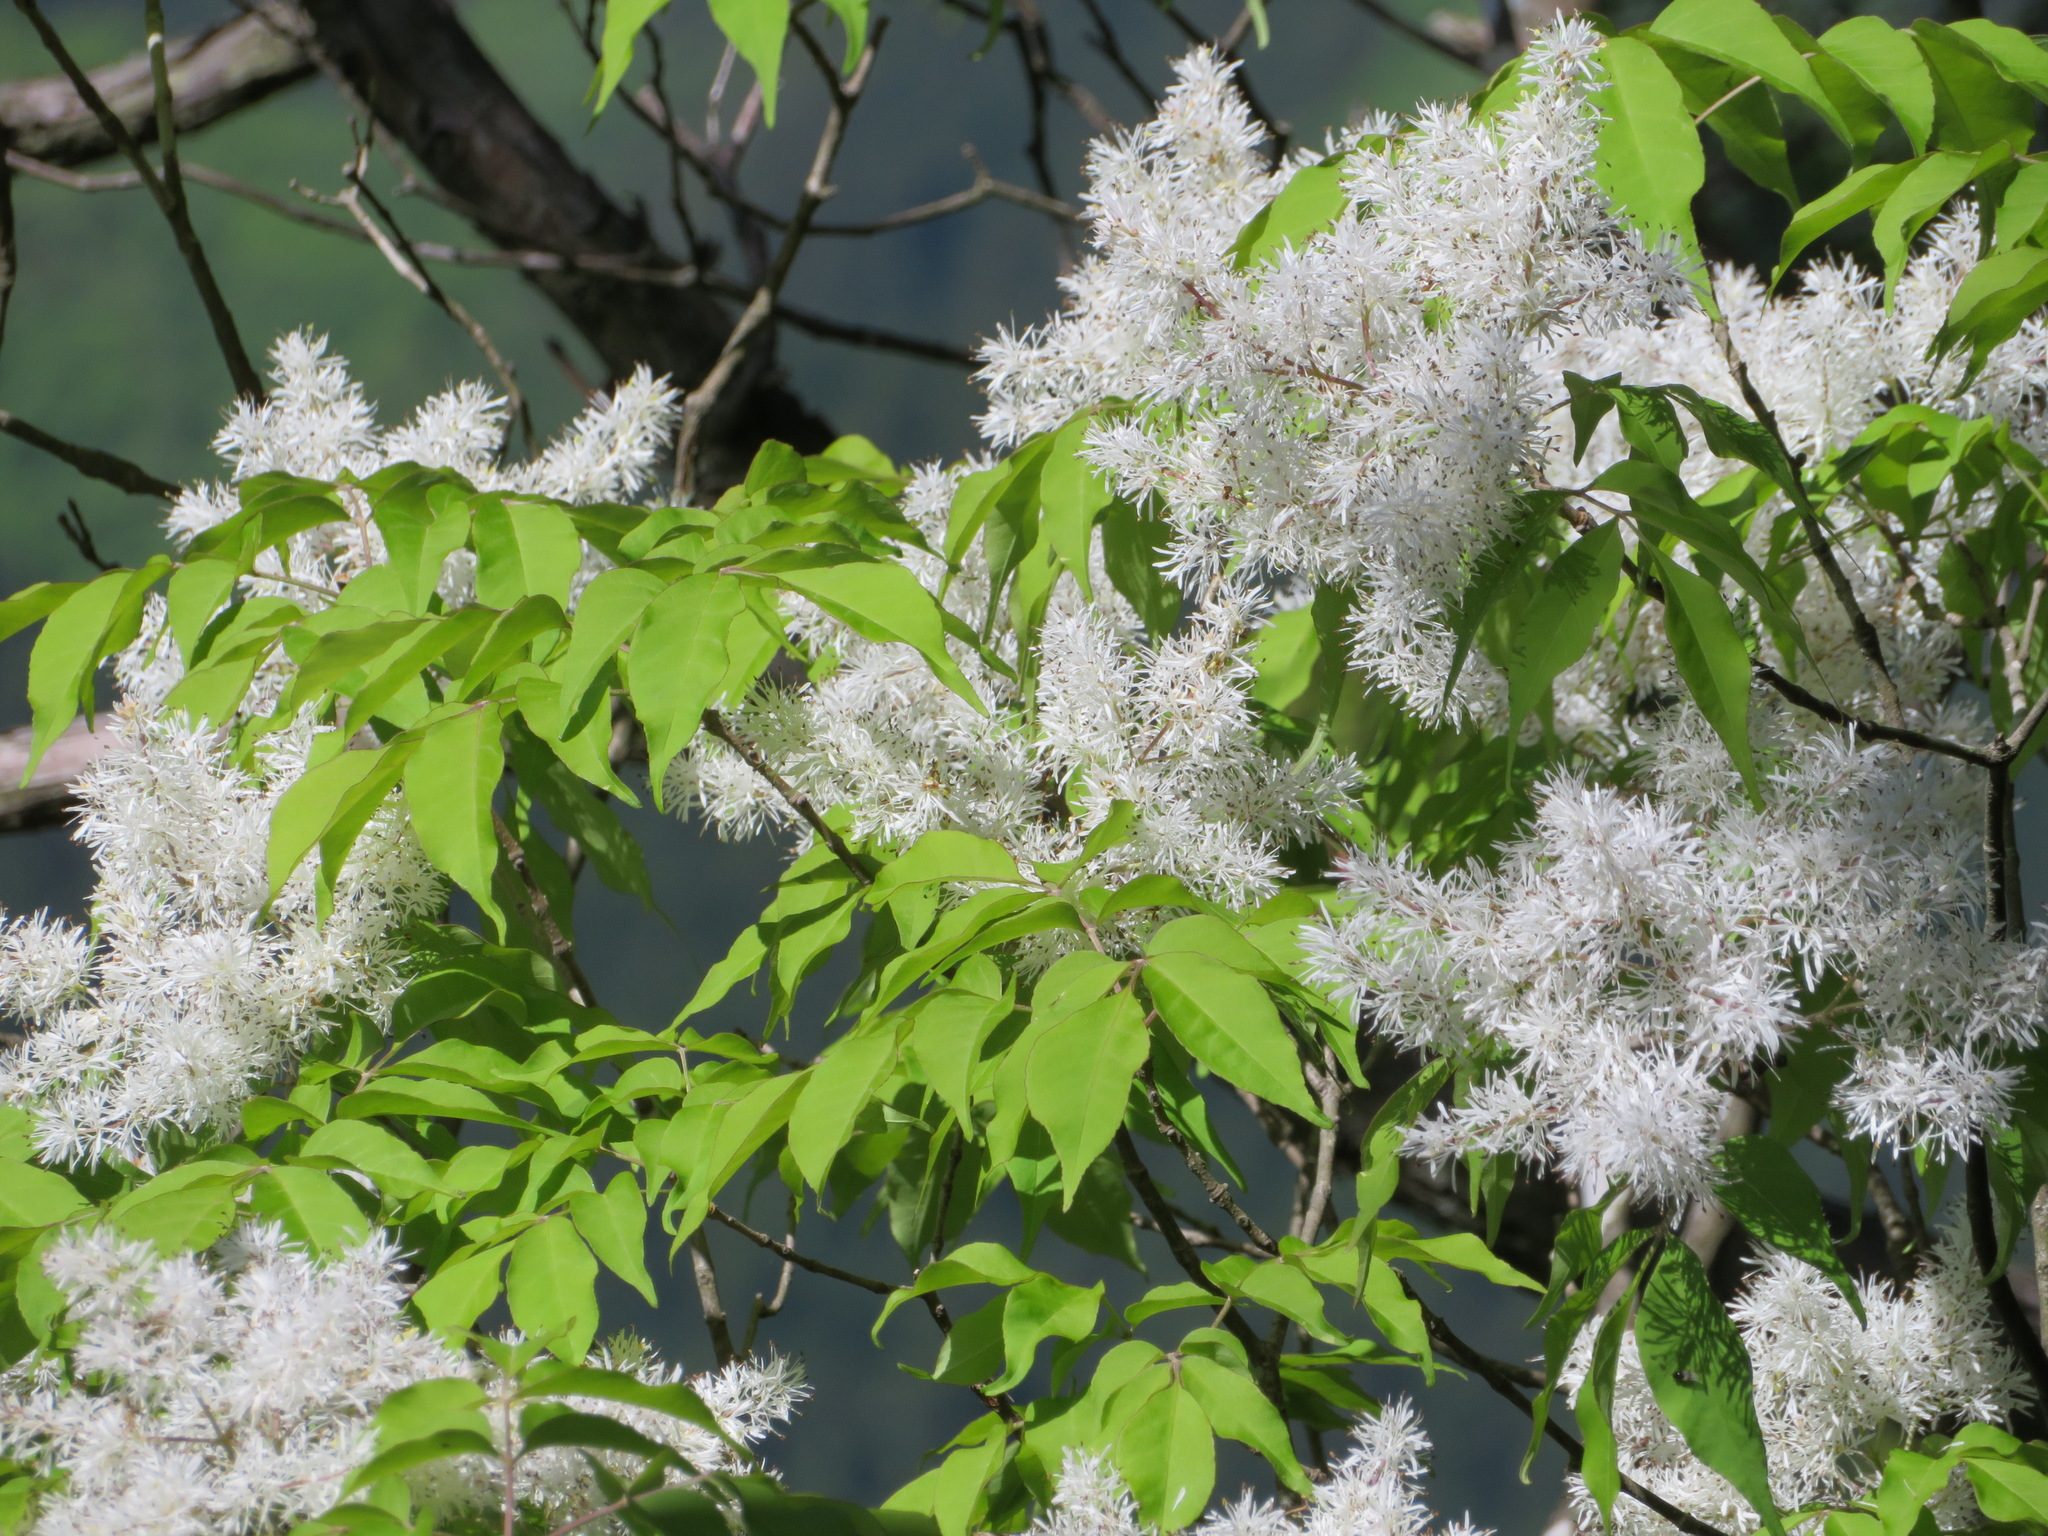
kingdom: Plantae
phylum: Tracheophyta
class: Magnoliopsida
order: Lamiales
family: Oleaceae
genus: Fraxinus
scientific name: Fraxinus sieboldiana
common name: Chinese flowering ash
